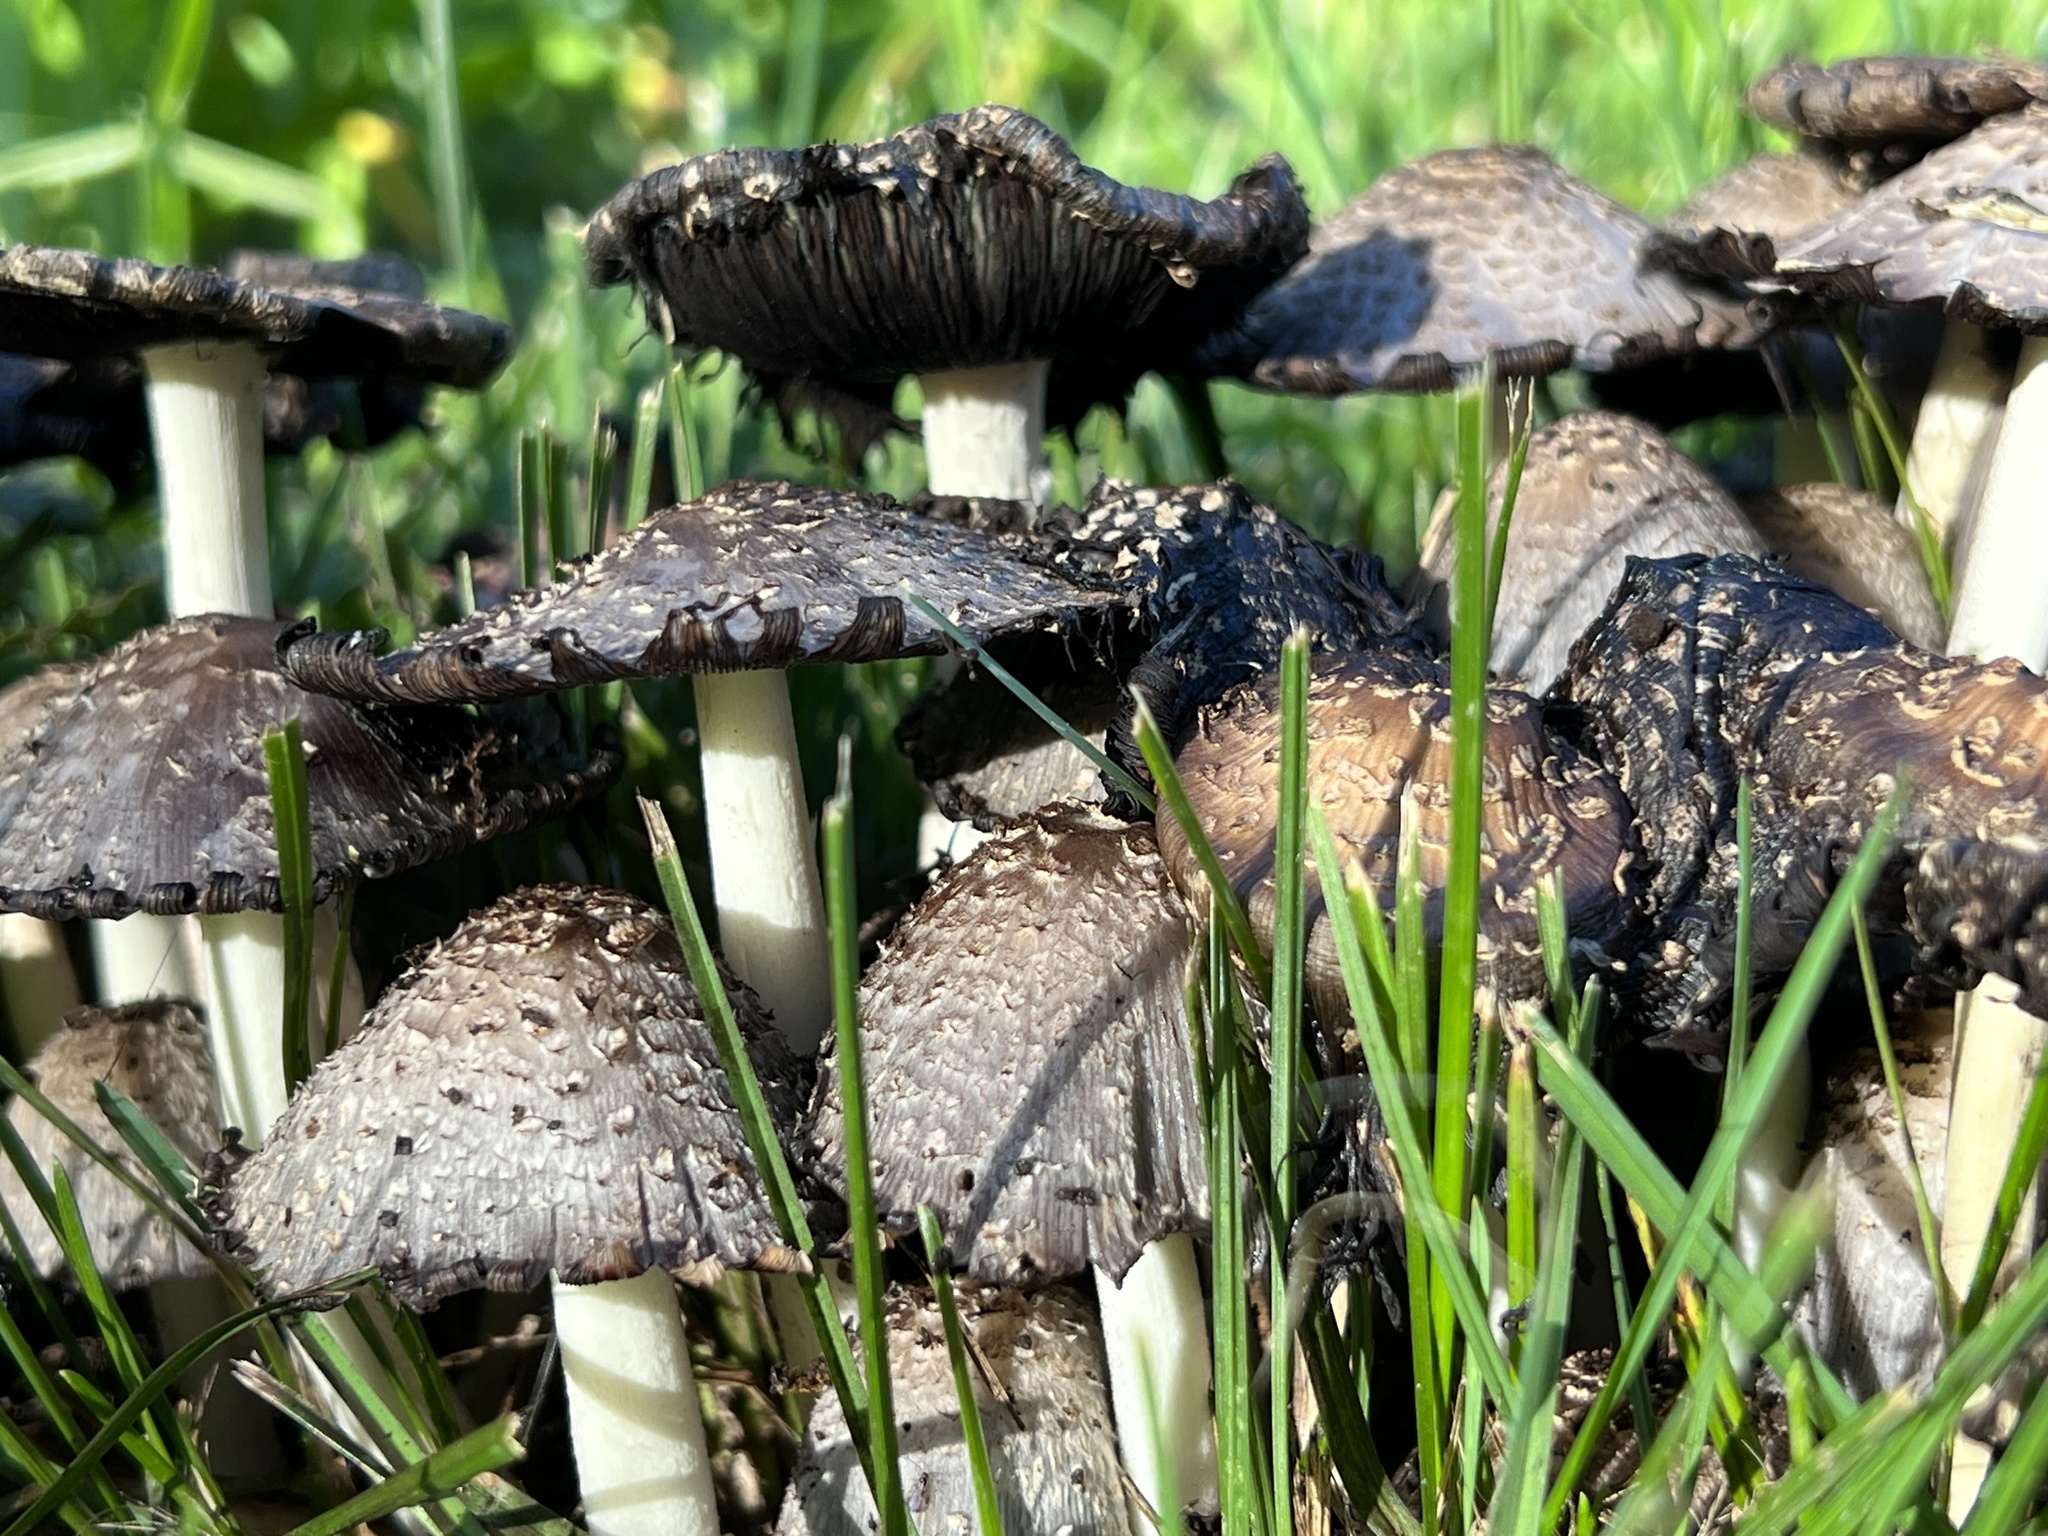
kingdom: Fungi
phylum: Basidiomycota
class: Agaricomycetes
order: Agaricales
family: Psathyrellaceae
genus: Coprinopsis
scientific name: Coprinopsis variegata
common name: Scaly ink cap
